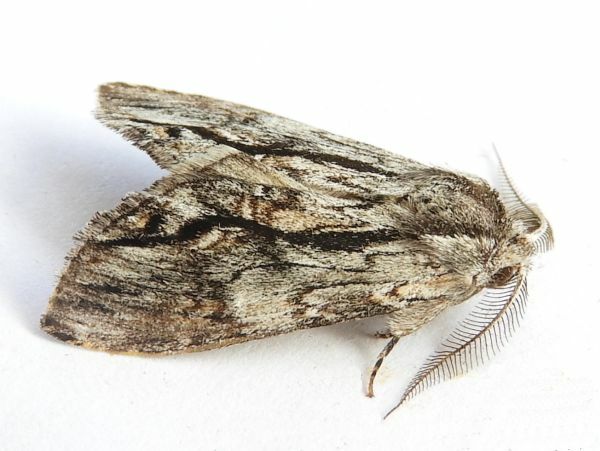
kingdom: Animalia
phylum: Arthropoda
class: Insecta
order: Lepidoptera
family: Notodontidae
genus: Notela
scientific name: Notela jaliscana
